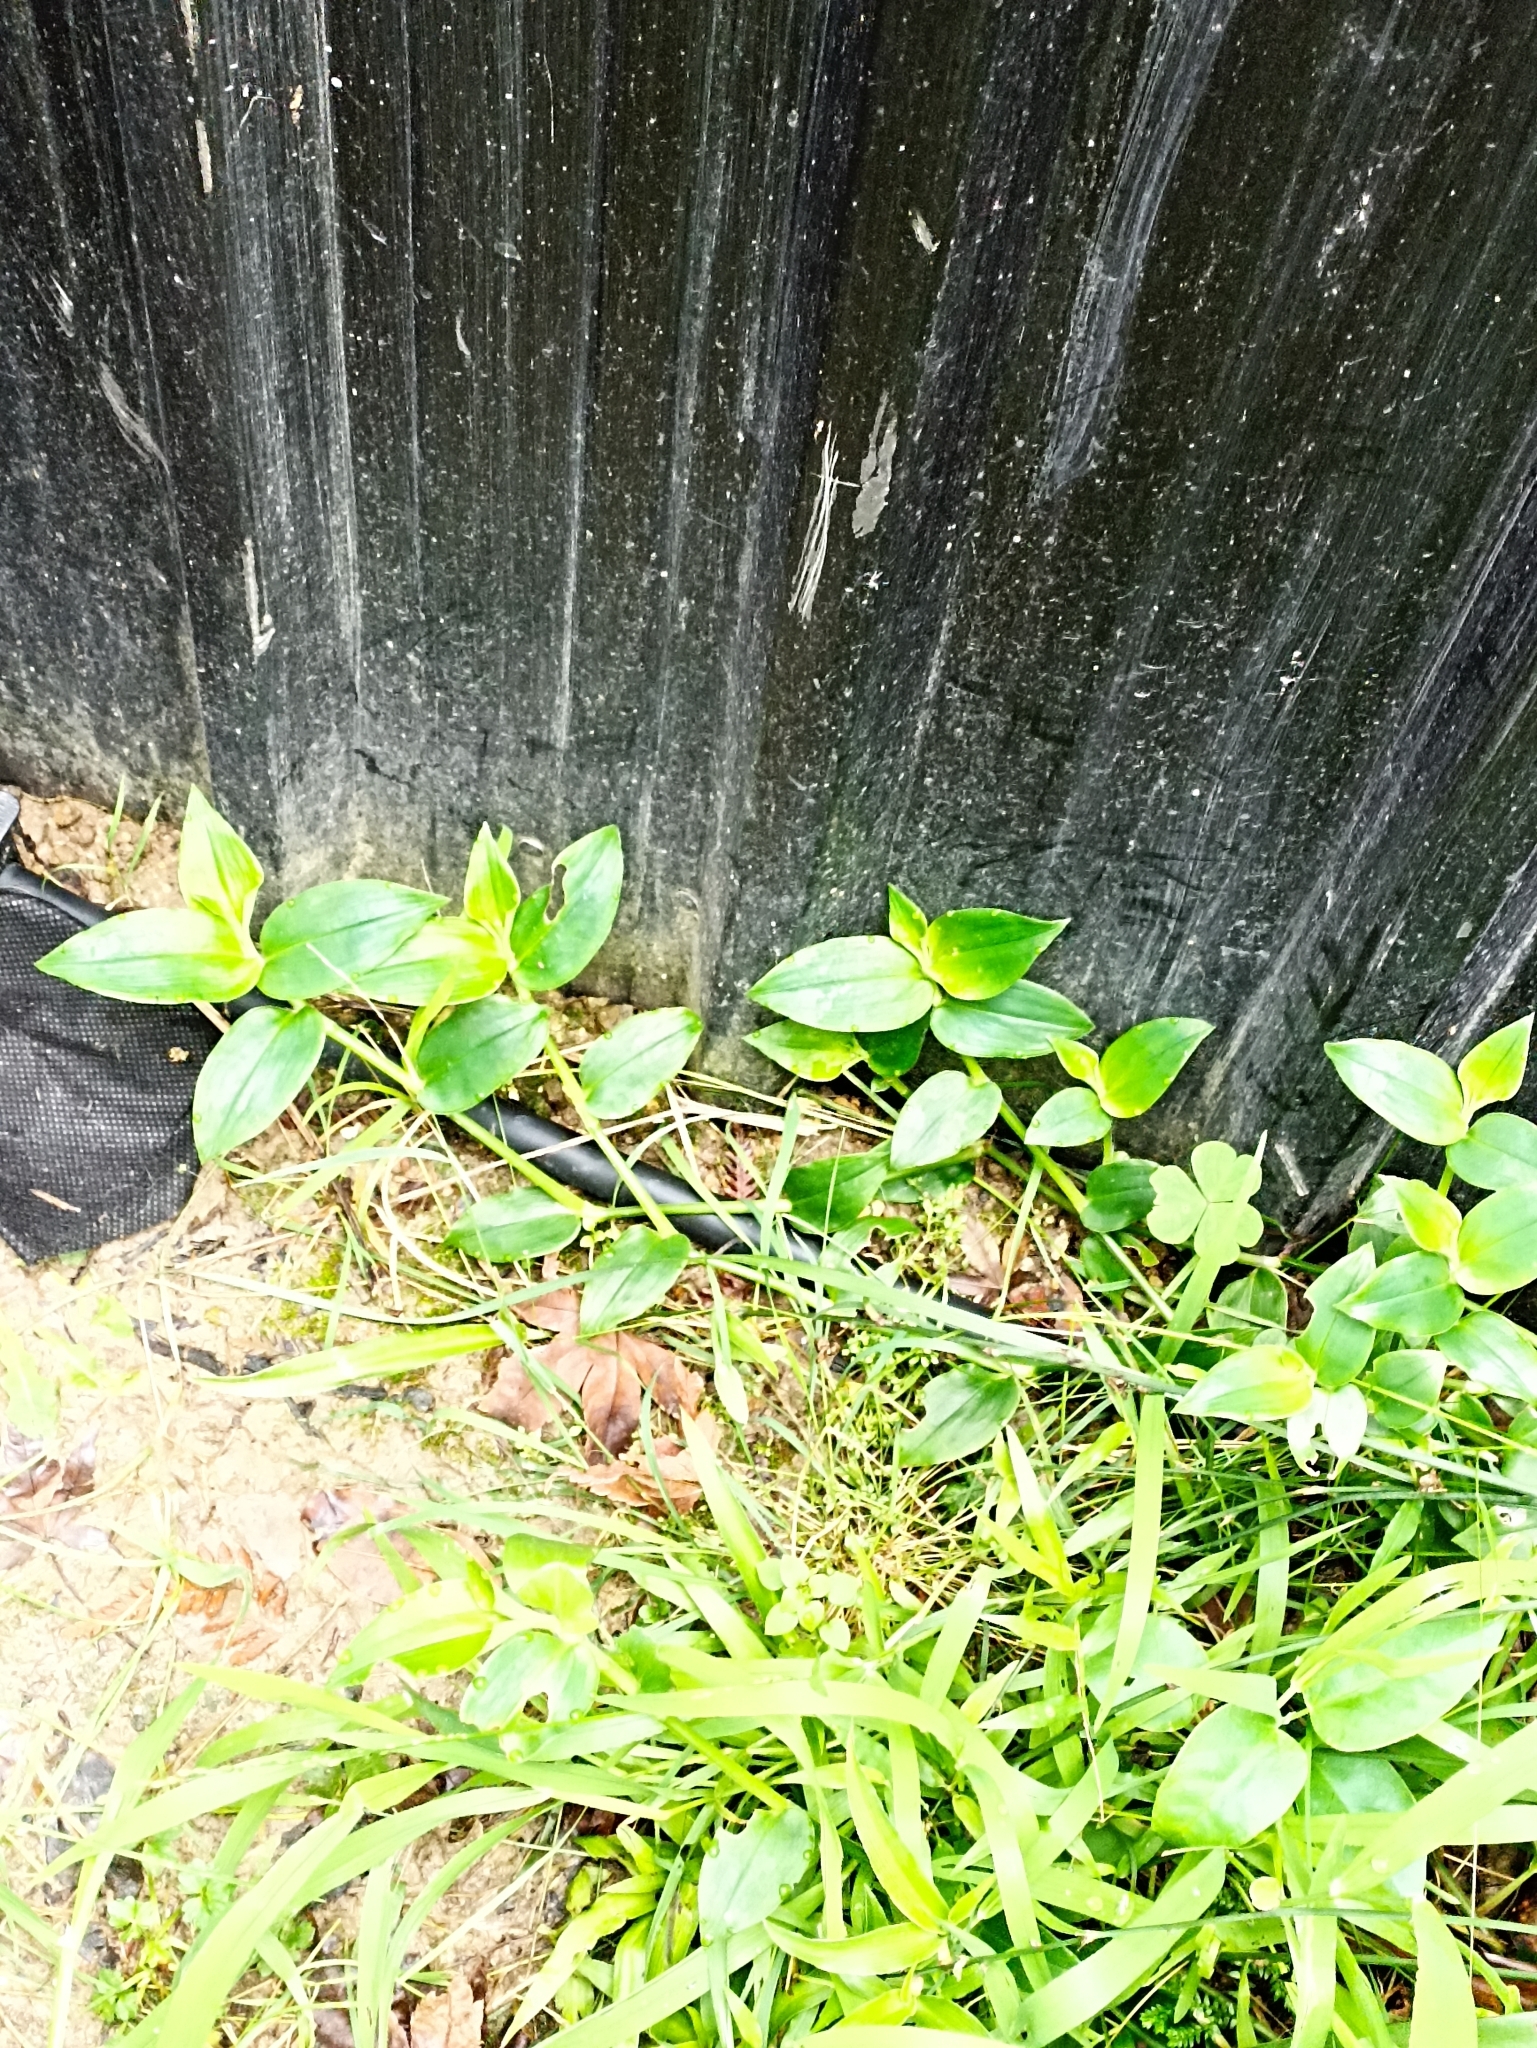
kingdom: Plantae
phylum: Tracheophyta
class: Liliopsida
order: Commelinales
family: Commelinaceae
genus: Tradescantia
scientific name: Tradescantia fluminensis
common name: Wandering-jew
